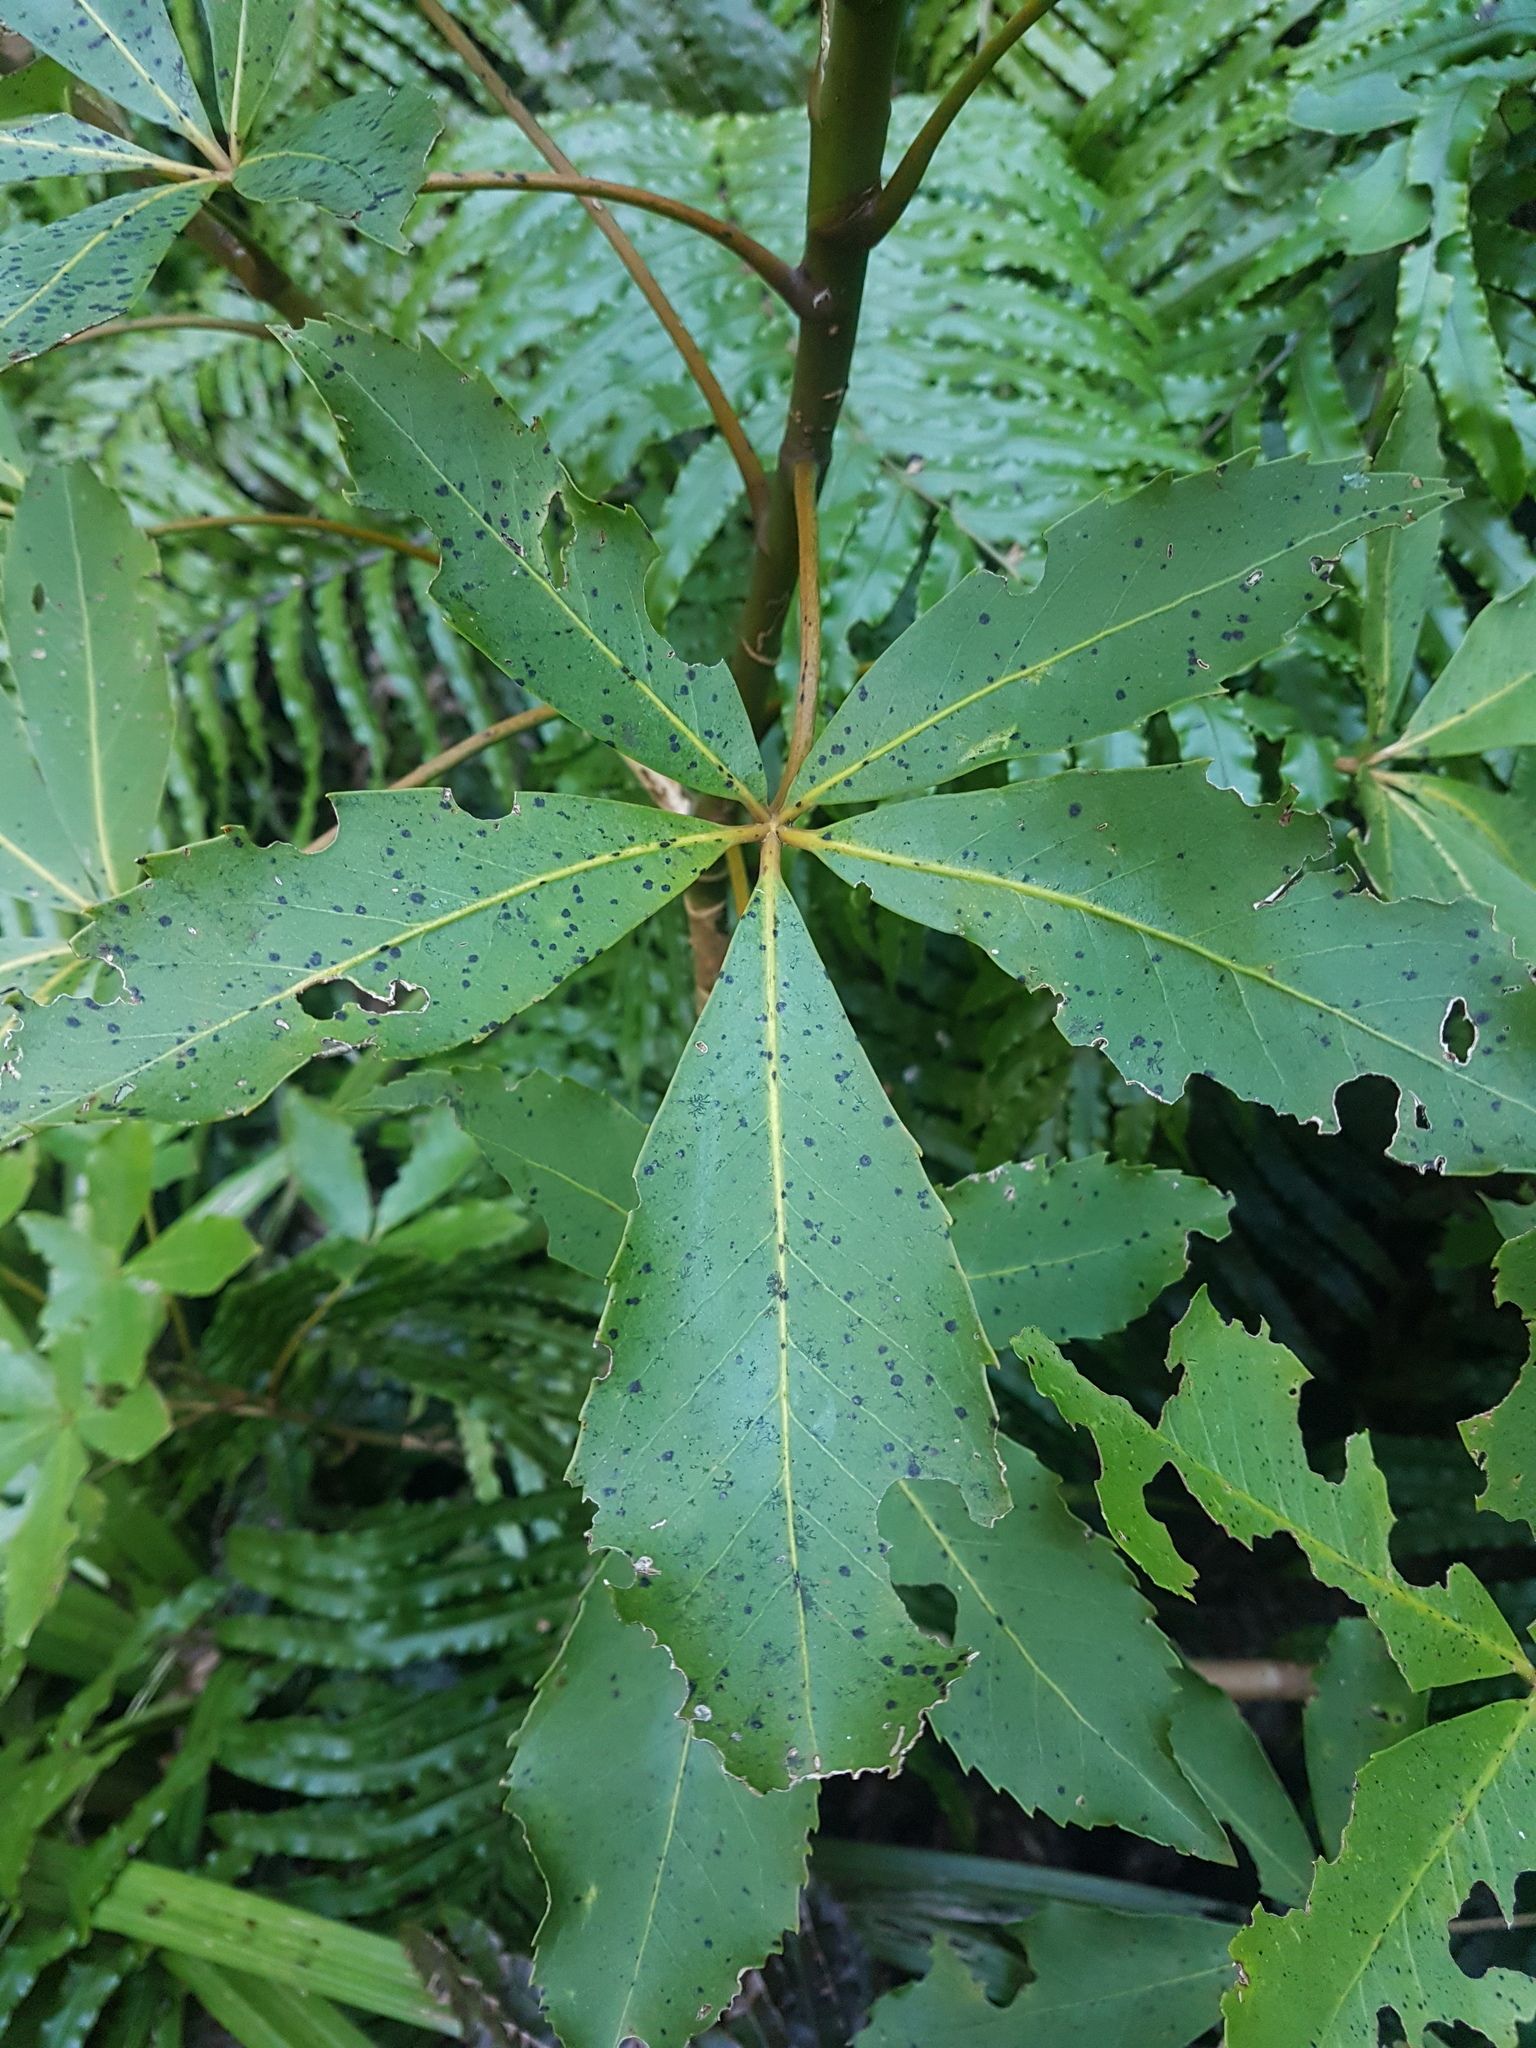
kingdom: Plantae
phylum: Tracheophyta
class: Magnoliopsida
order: Apiales
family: Araliaceae
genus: Neopanax
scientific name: Neopanax colensoi
